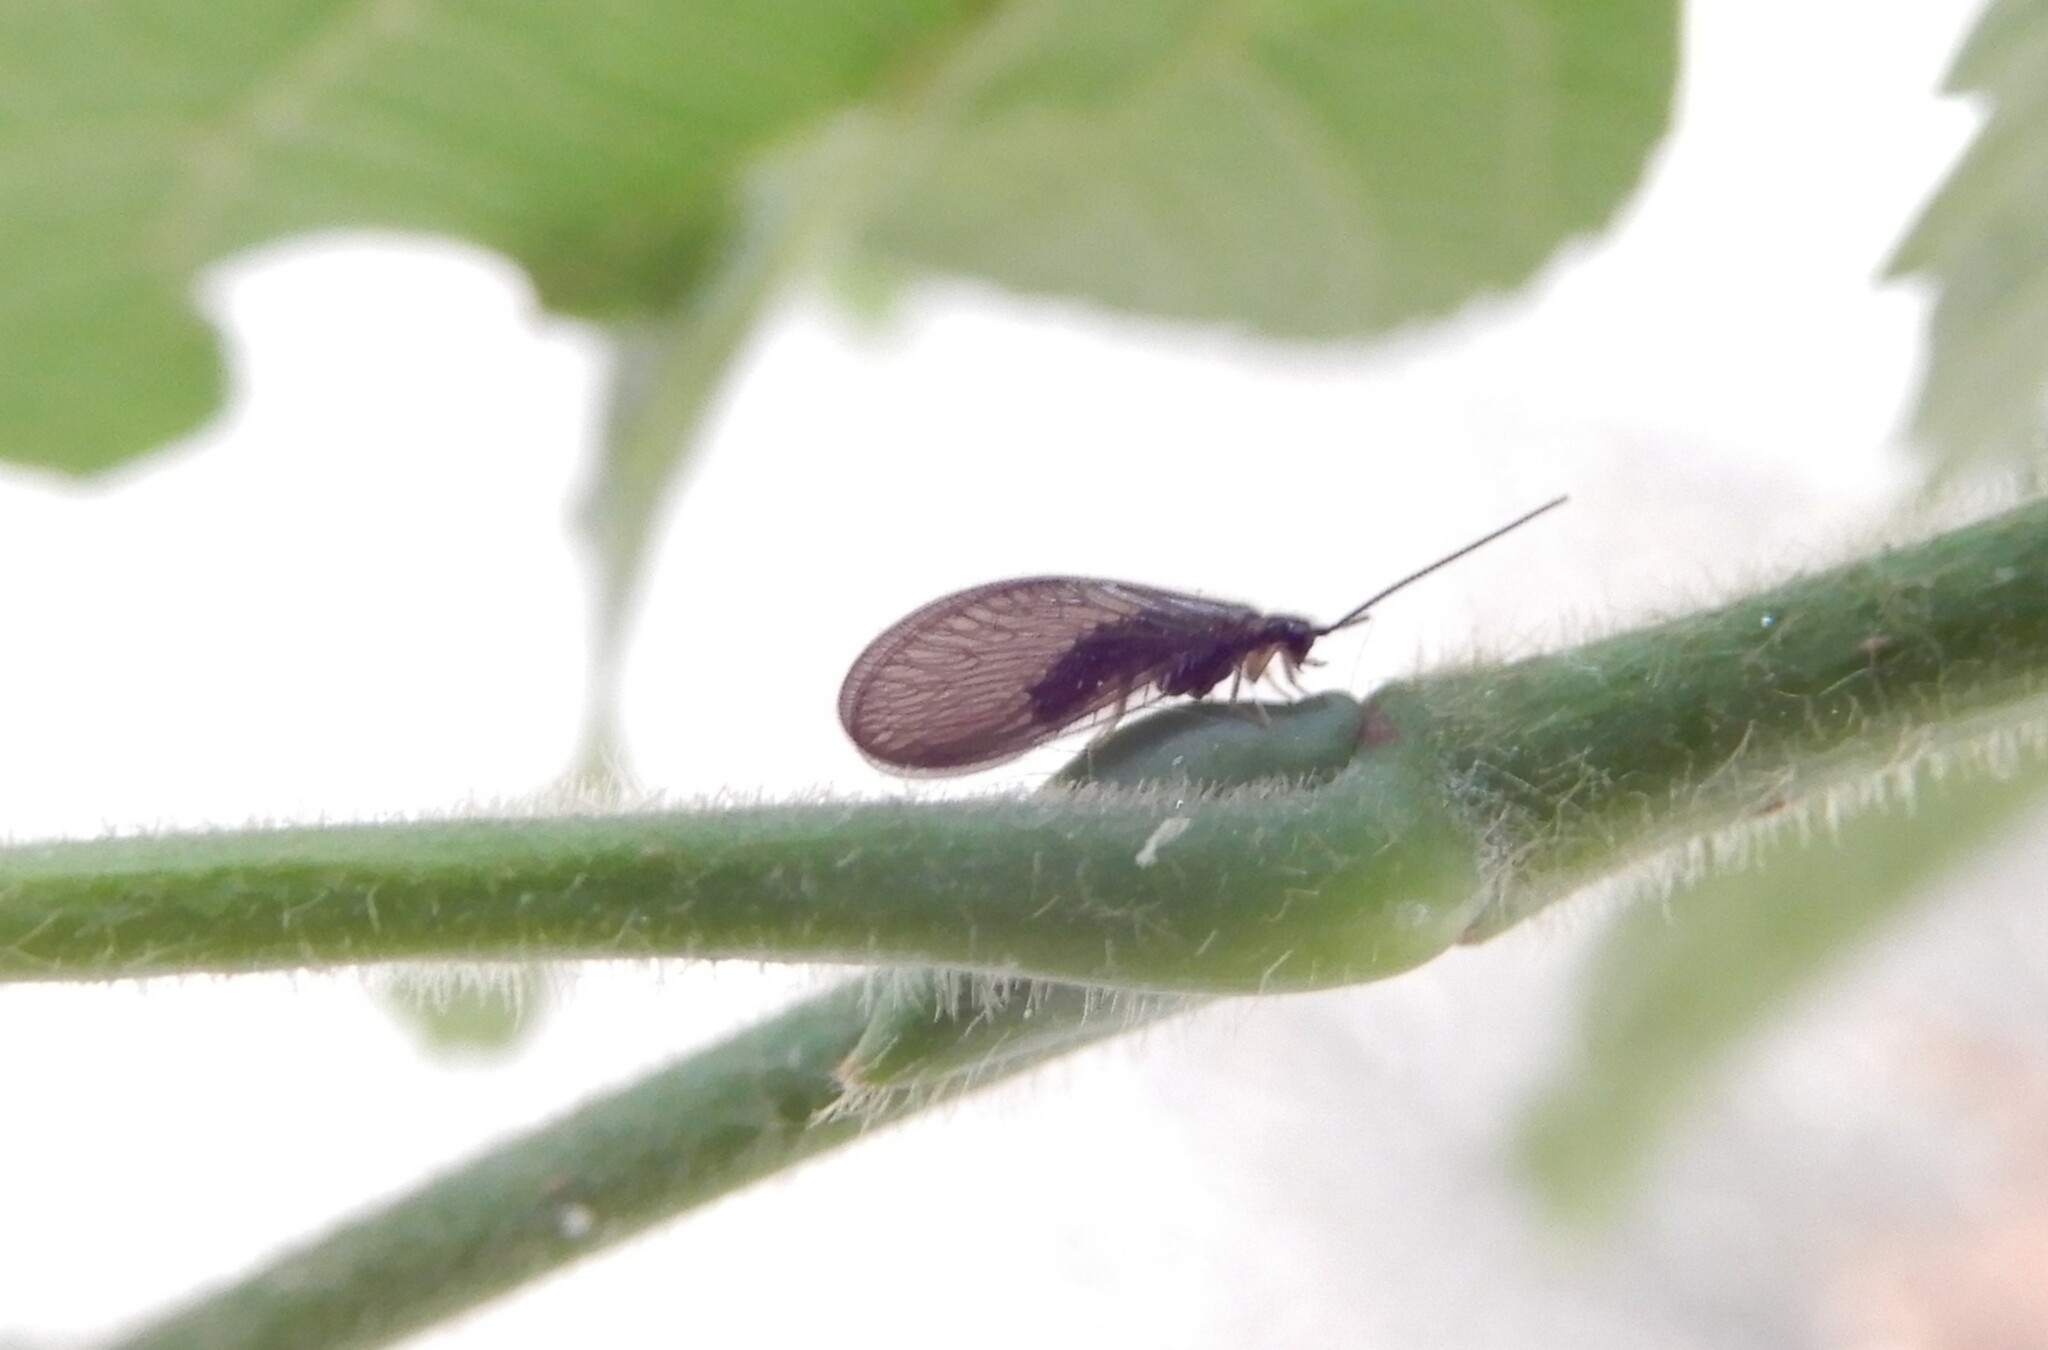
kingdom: Animalia
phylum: Arthropoda
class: Insecta
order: Neuroptera
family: Sisyridae
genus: Sisyra
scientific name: Sisyra nigra
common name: Black spongillafly
